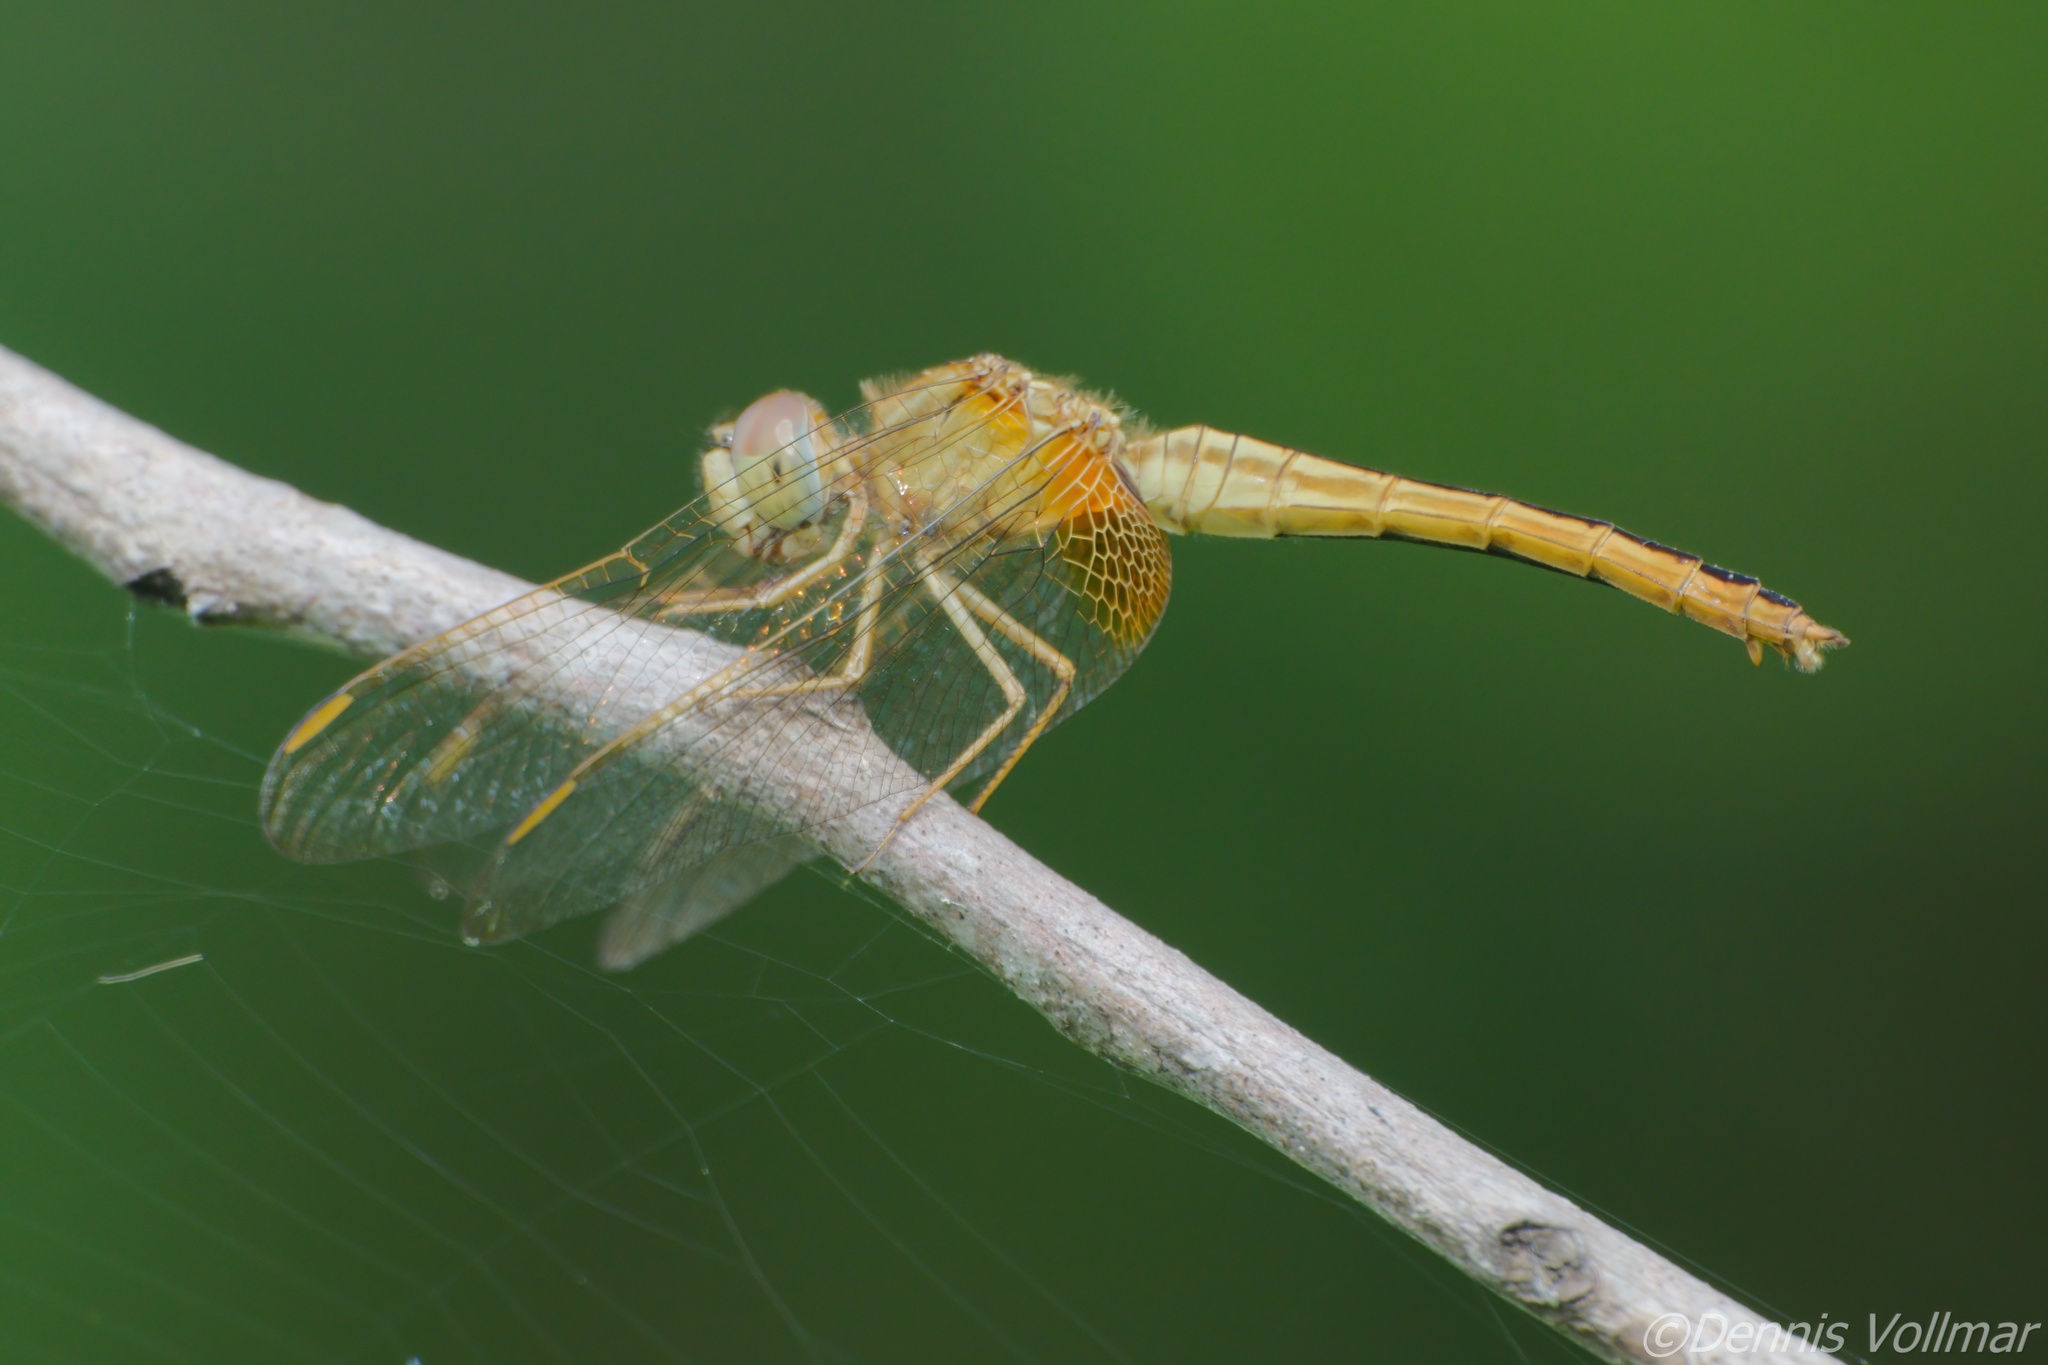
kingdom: Animalia
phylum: Arthropoda
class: Insecta
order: Odonata
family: Libellulidae
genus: Crocothemis
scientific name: Crocothemis servilia
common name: Scarlet skimmer
